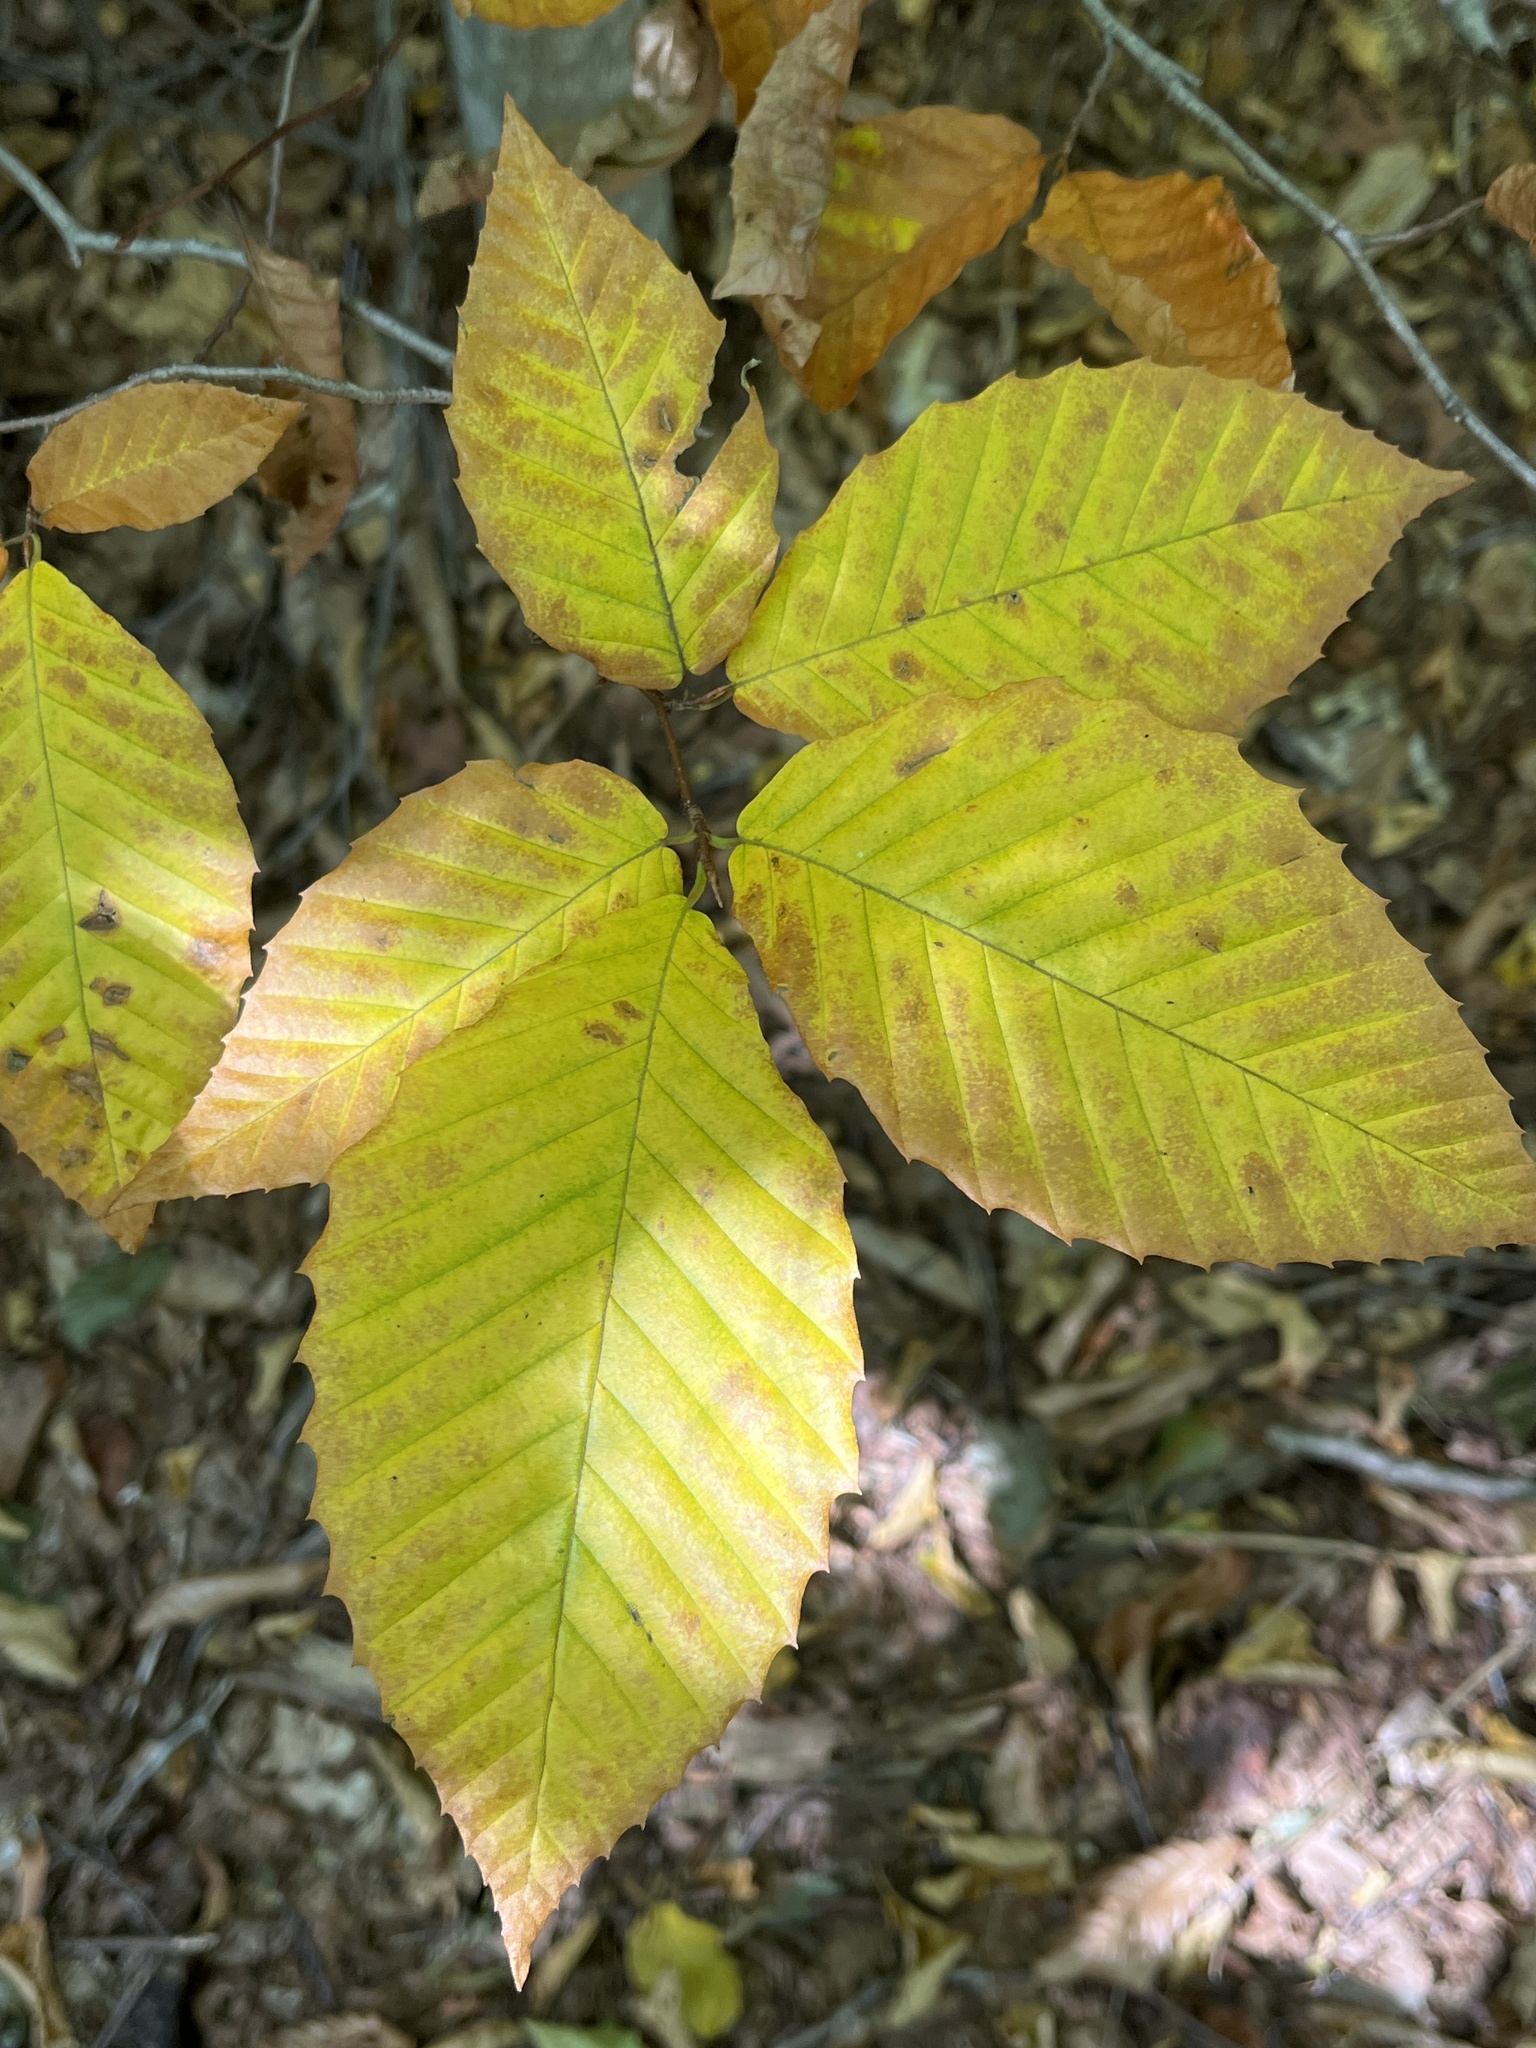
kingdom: Plantae
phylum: Tracheophyta
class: Magnoliopsida
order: Fagales
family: Fagaceae
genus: Fagus
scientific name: Fagus grandifolia
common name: American beech
